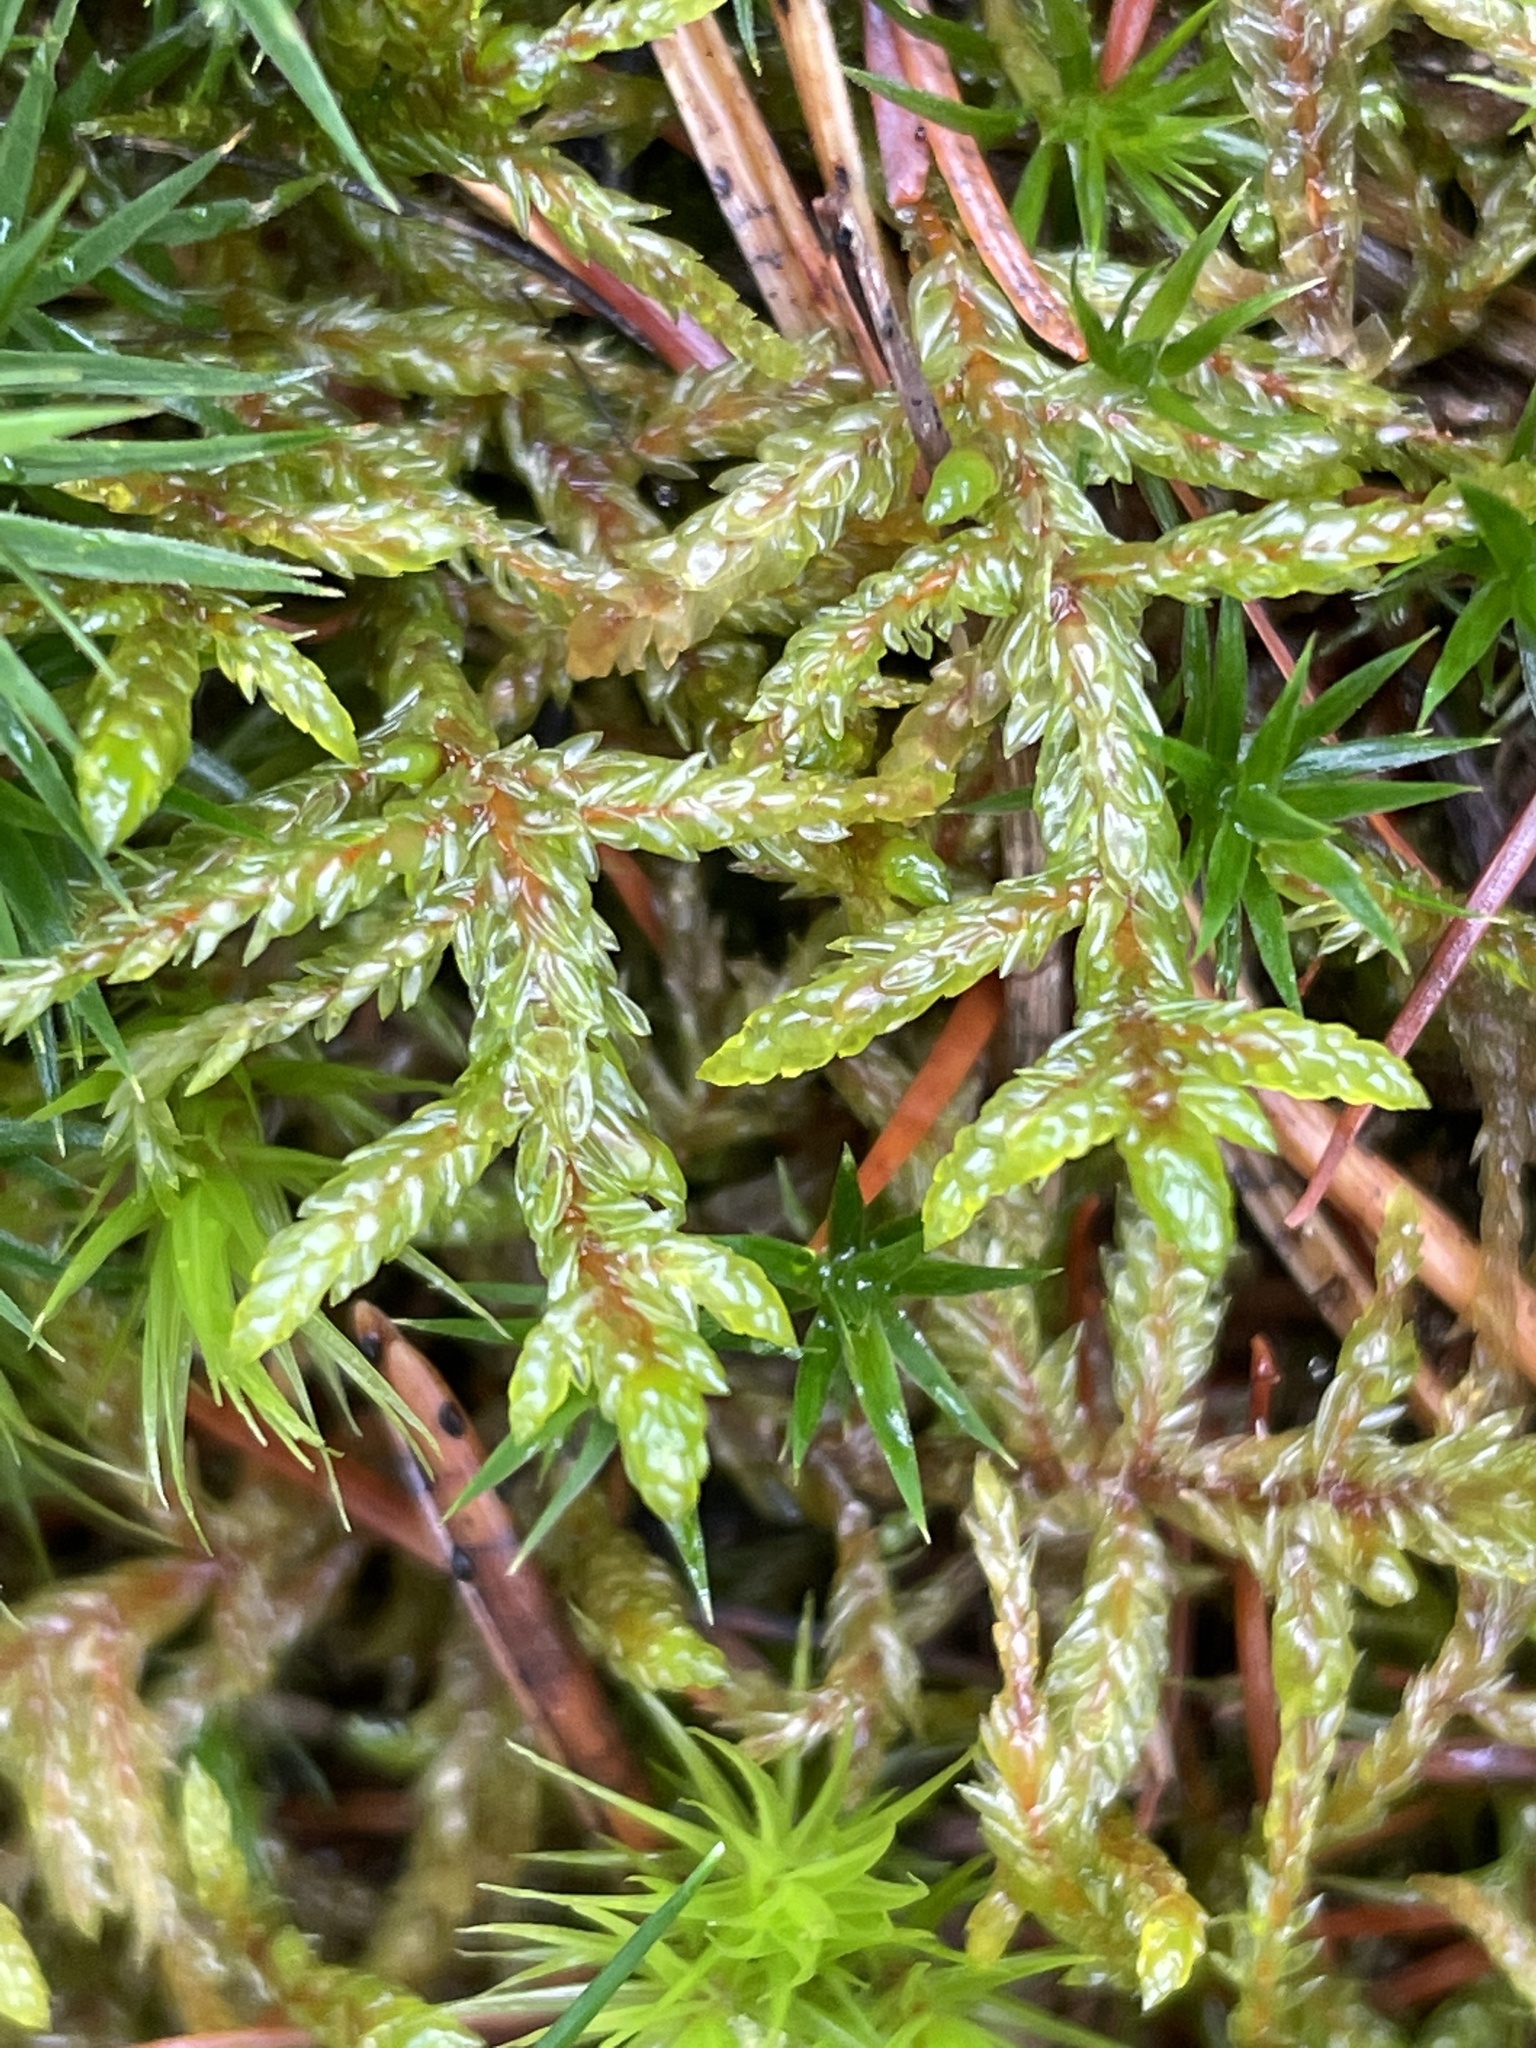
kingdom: Plantae
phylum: Bryophyta
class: Bryopsida
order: Hypnales
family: Hylocomiaceae
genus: Pleurozium
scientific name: Pleurozium schreberi
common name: Red-stemmed feather moss
